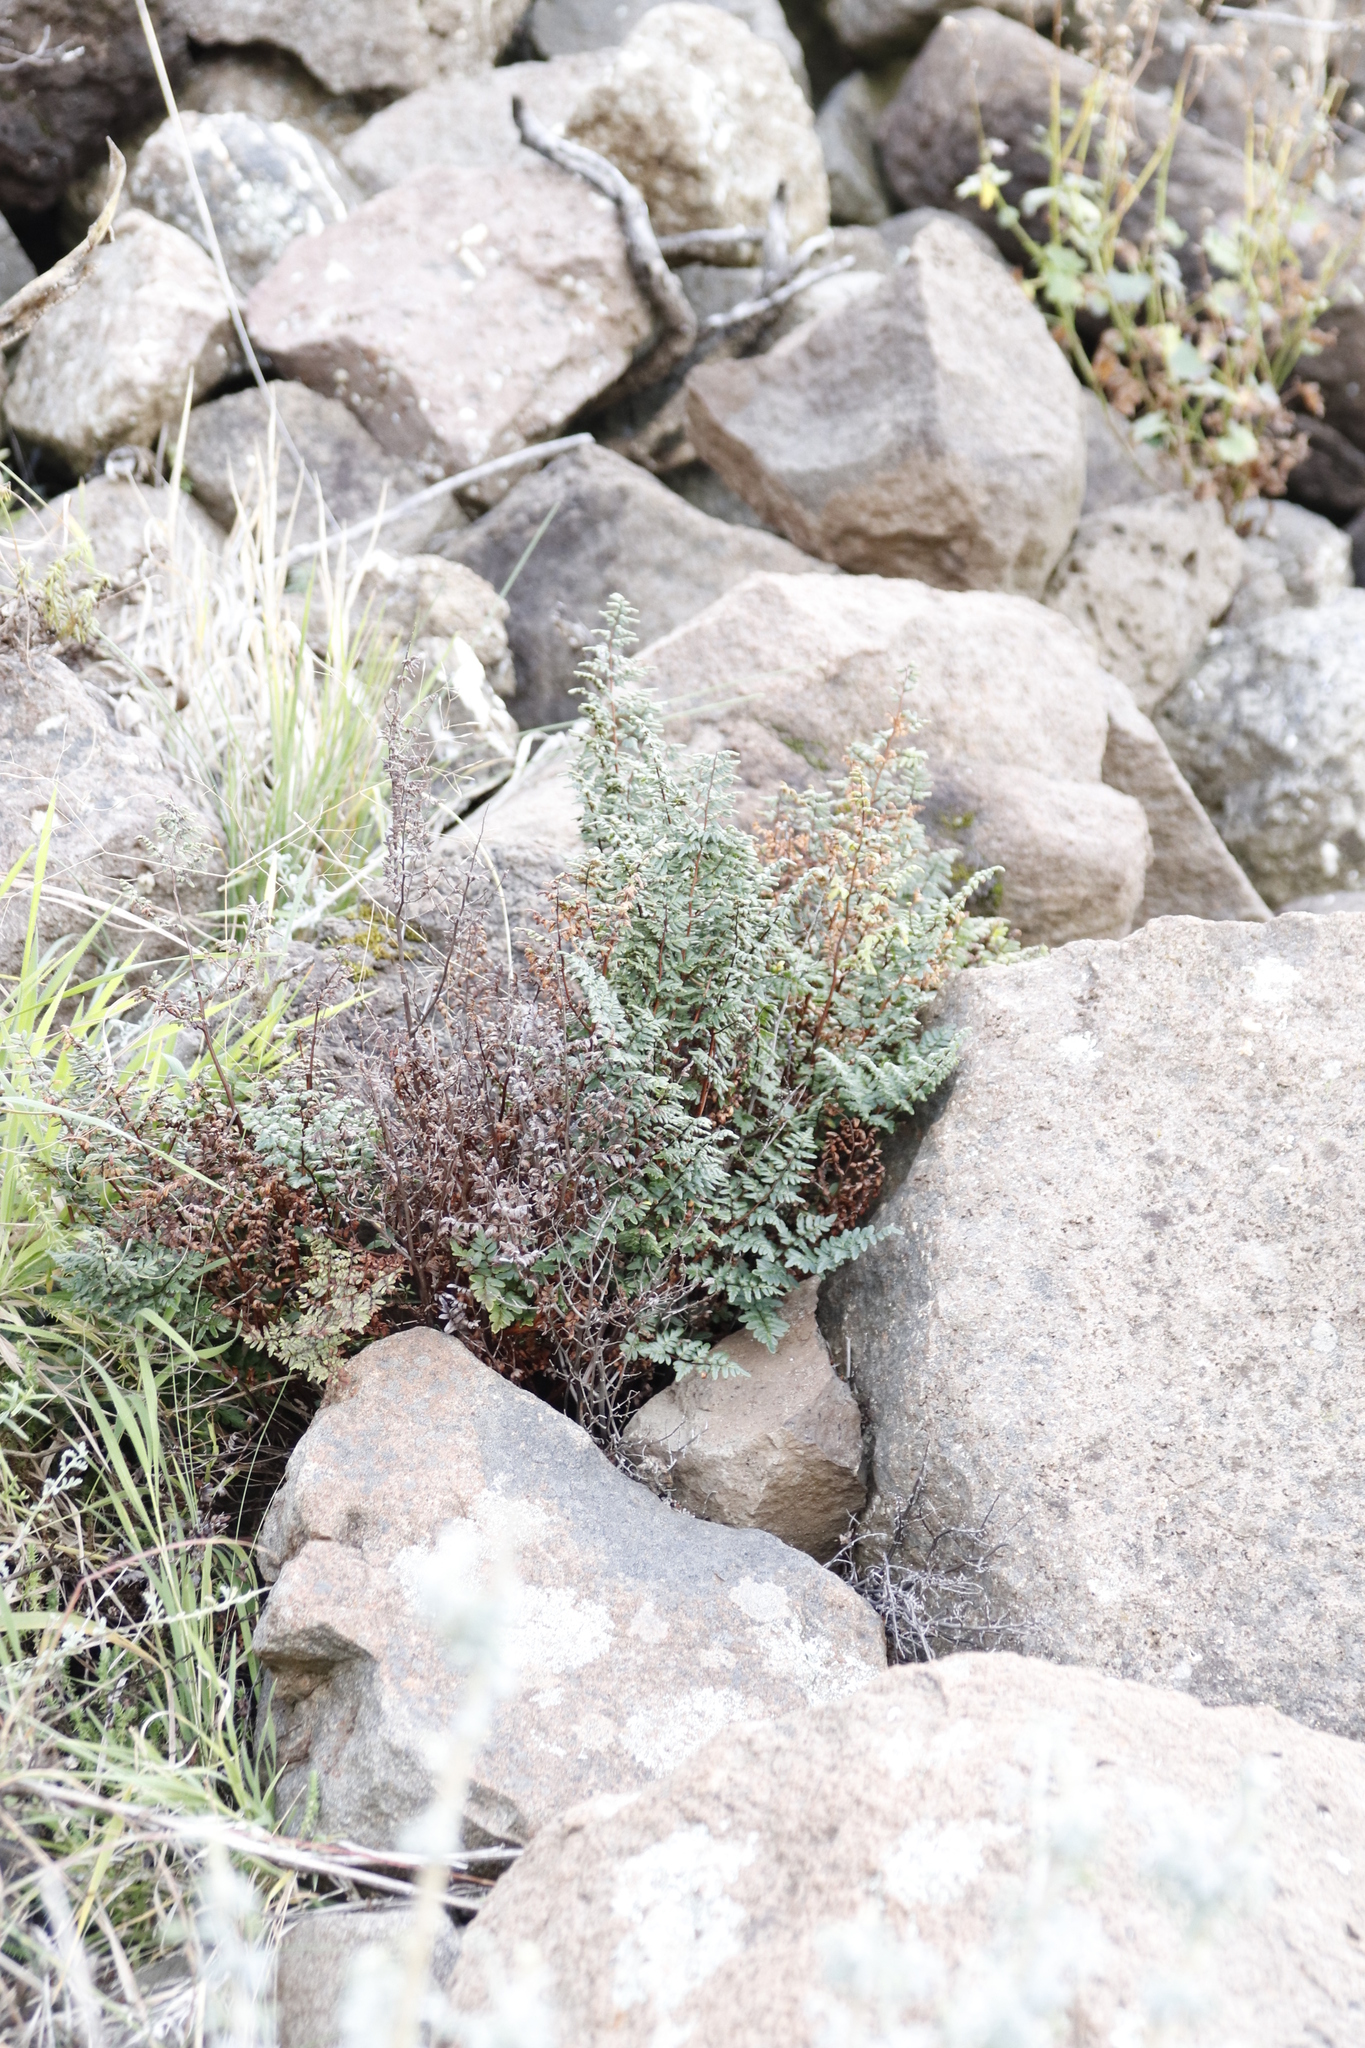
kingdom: Plantae
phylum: Tracheophyta
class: Polypodiopsida
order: Polypodiales
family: Pteridaceae
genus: Cheilanthes
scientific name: Cheilanthes quadripinnata
